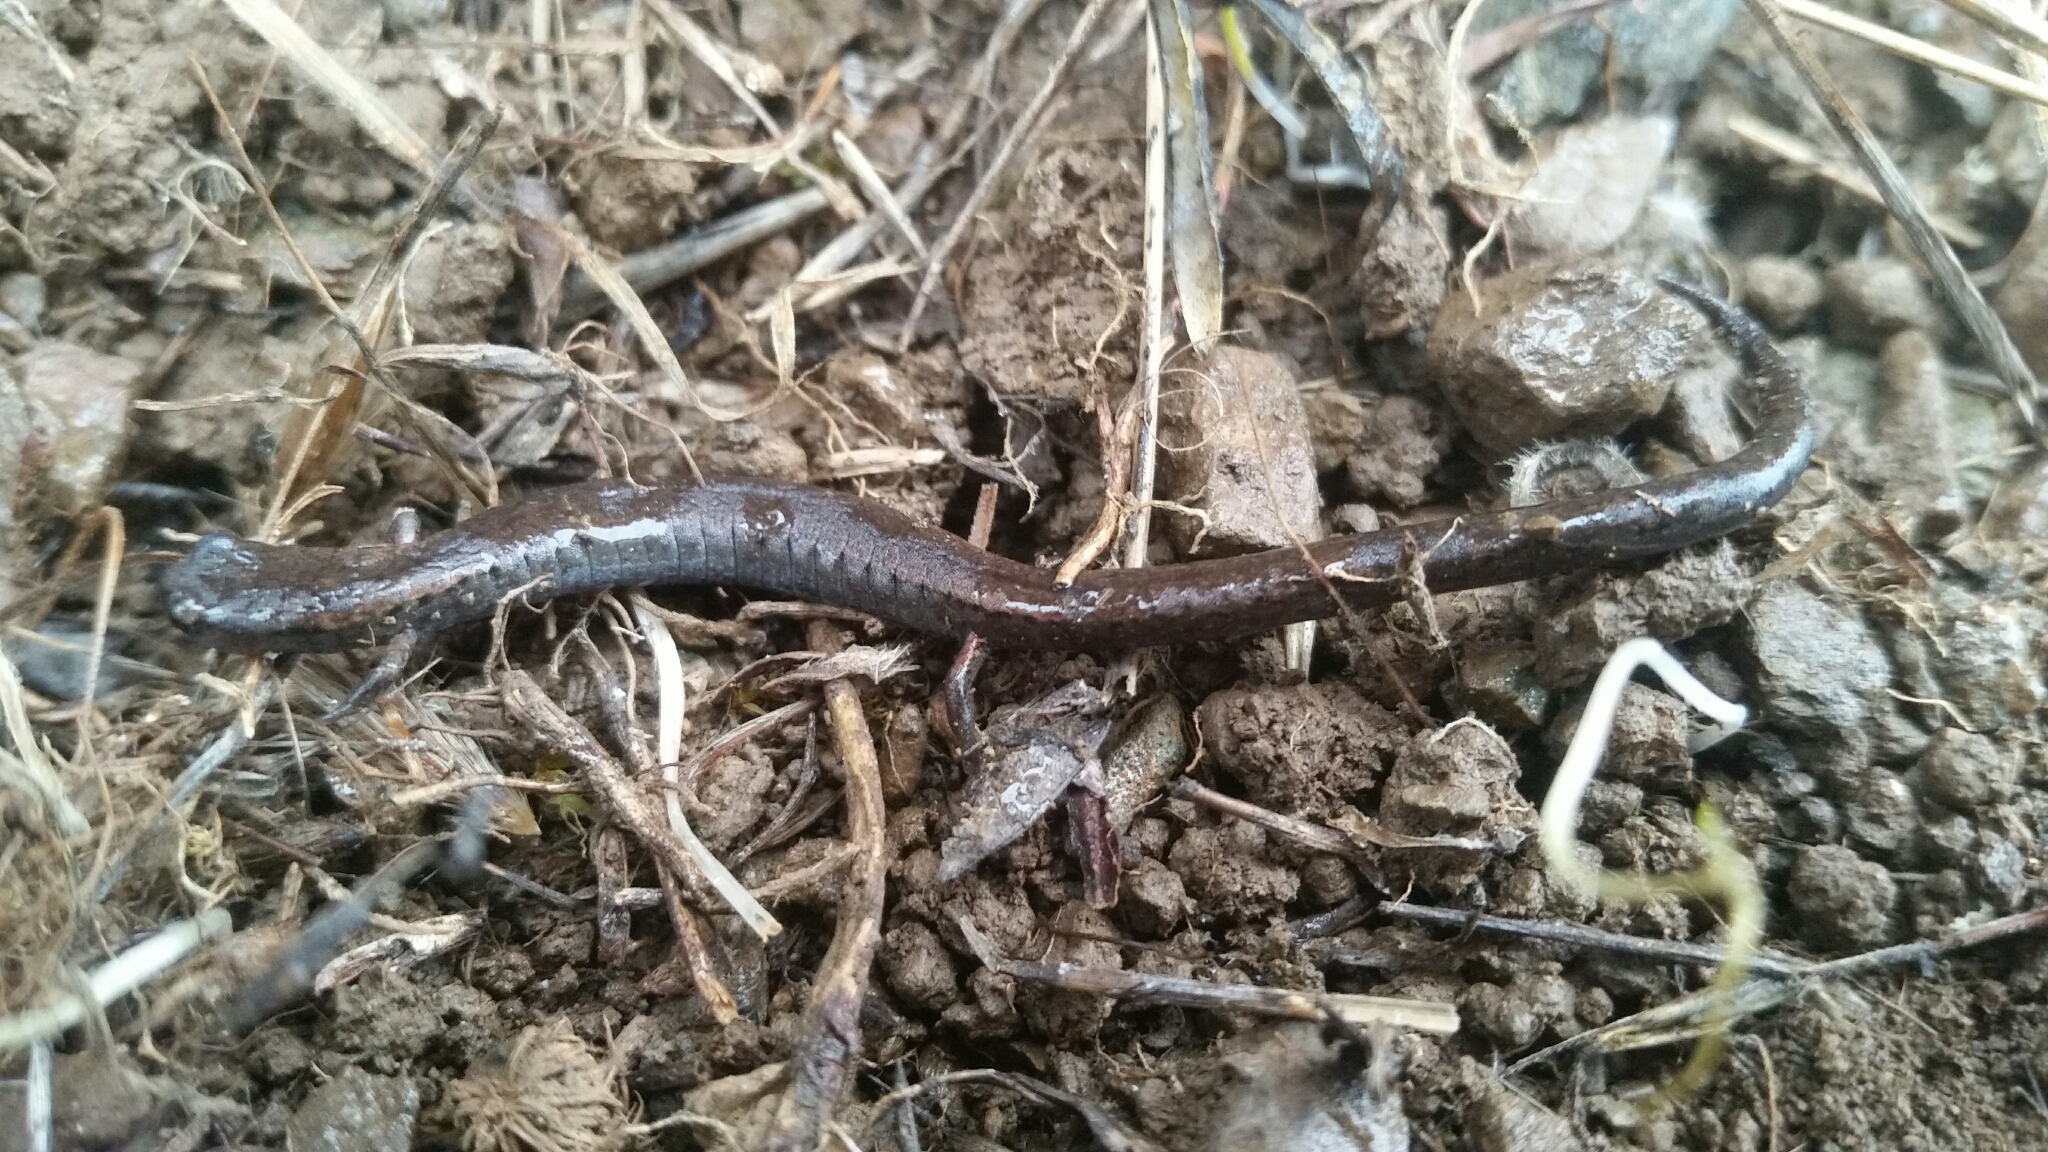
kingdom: Animalia
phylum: Chordata
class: Amphibia
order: Caudata
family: Plethodontidae
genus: Batrachoseps
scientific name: Batrachoseps attenuatus
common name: California slender salamander
